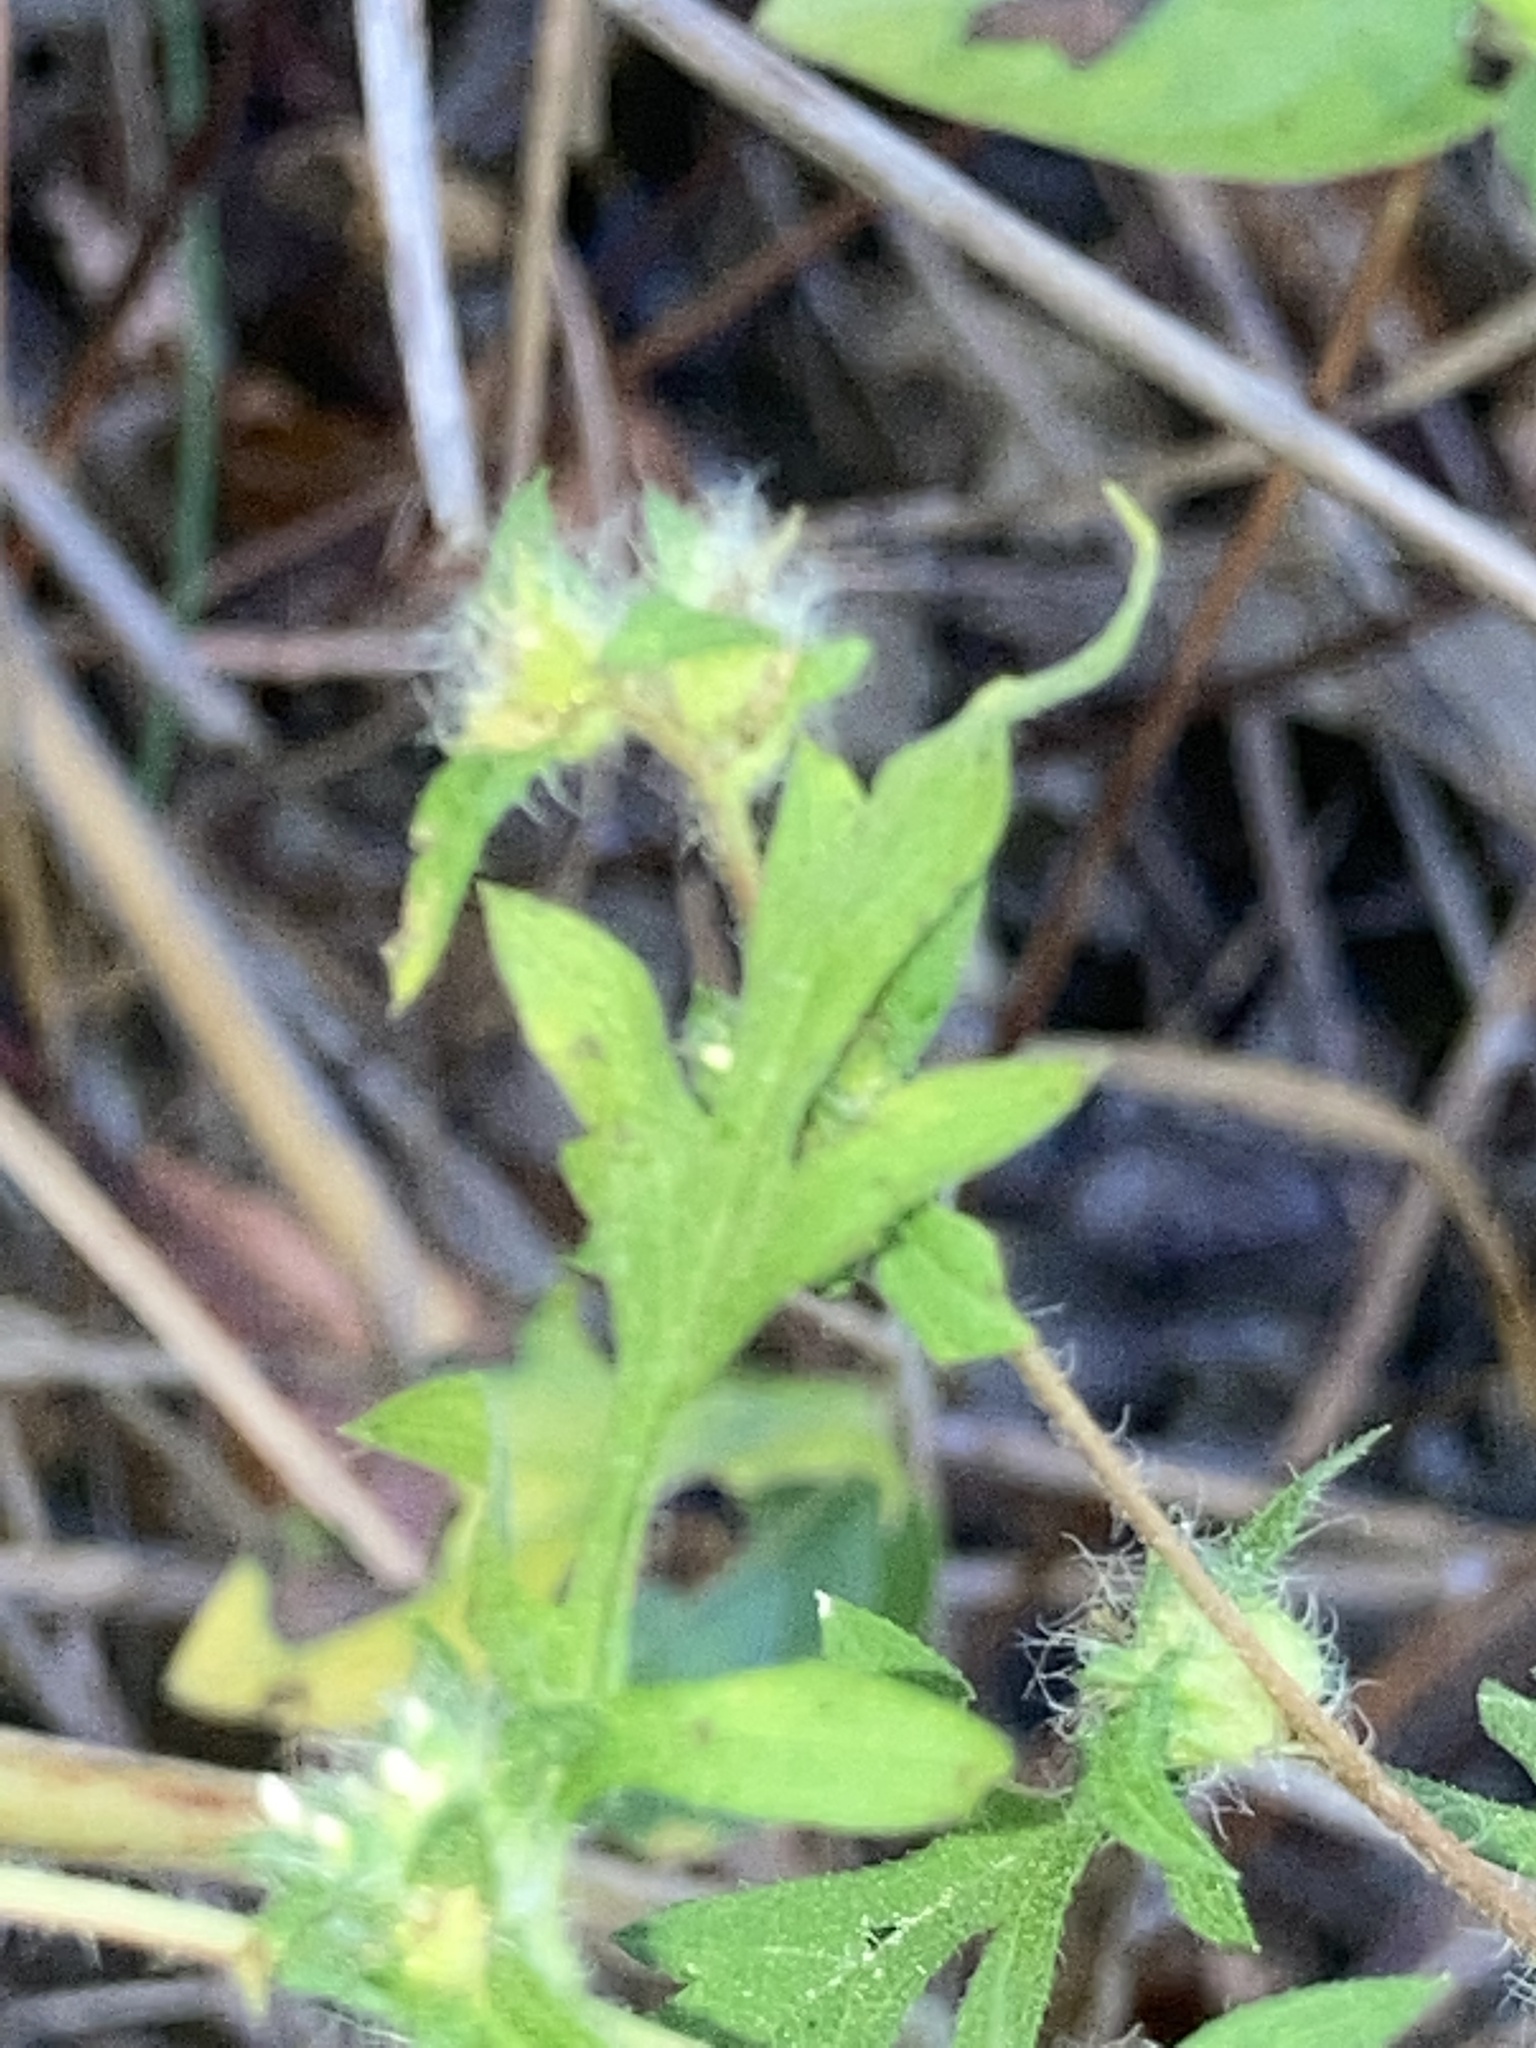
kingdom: Plantae
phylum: Tracheophyta
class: Magnoliopsida
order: Asterales
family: Asteraceae
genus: Ambrosia
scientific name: Ambrosia artemisiifolia
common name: Annual ragweed
